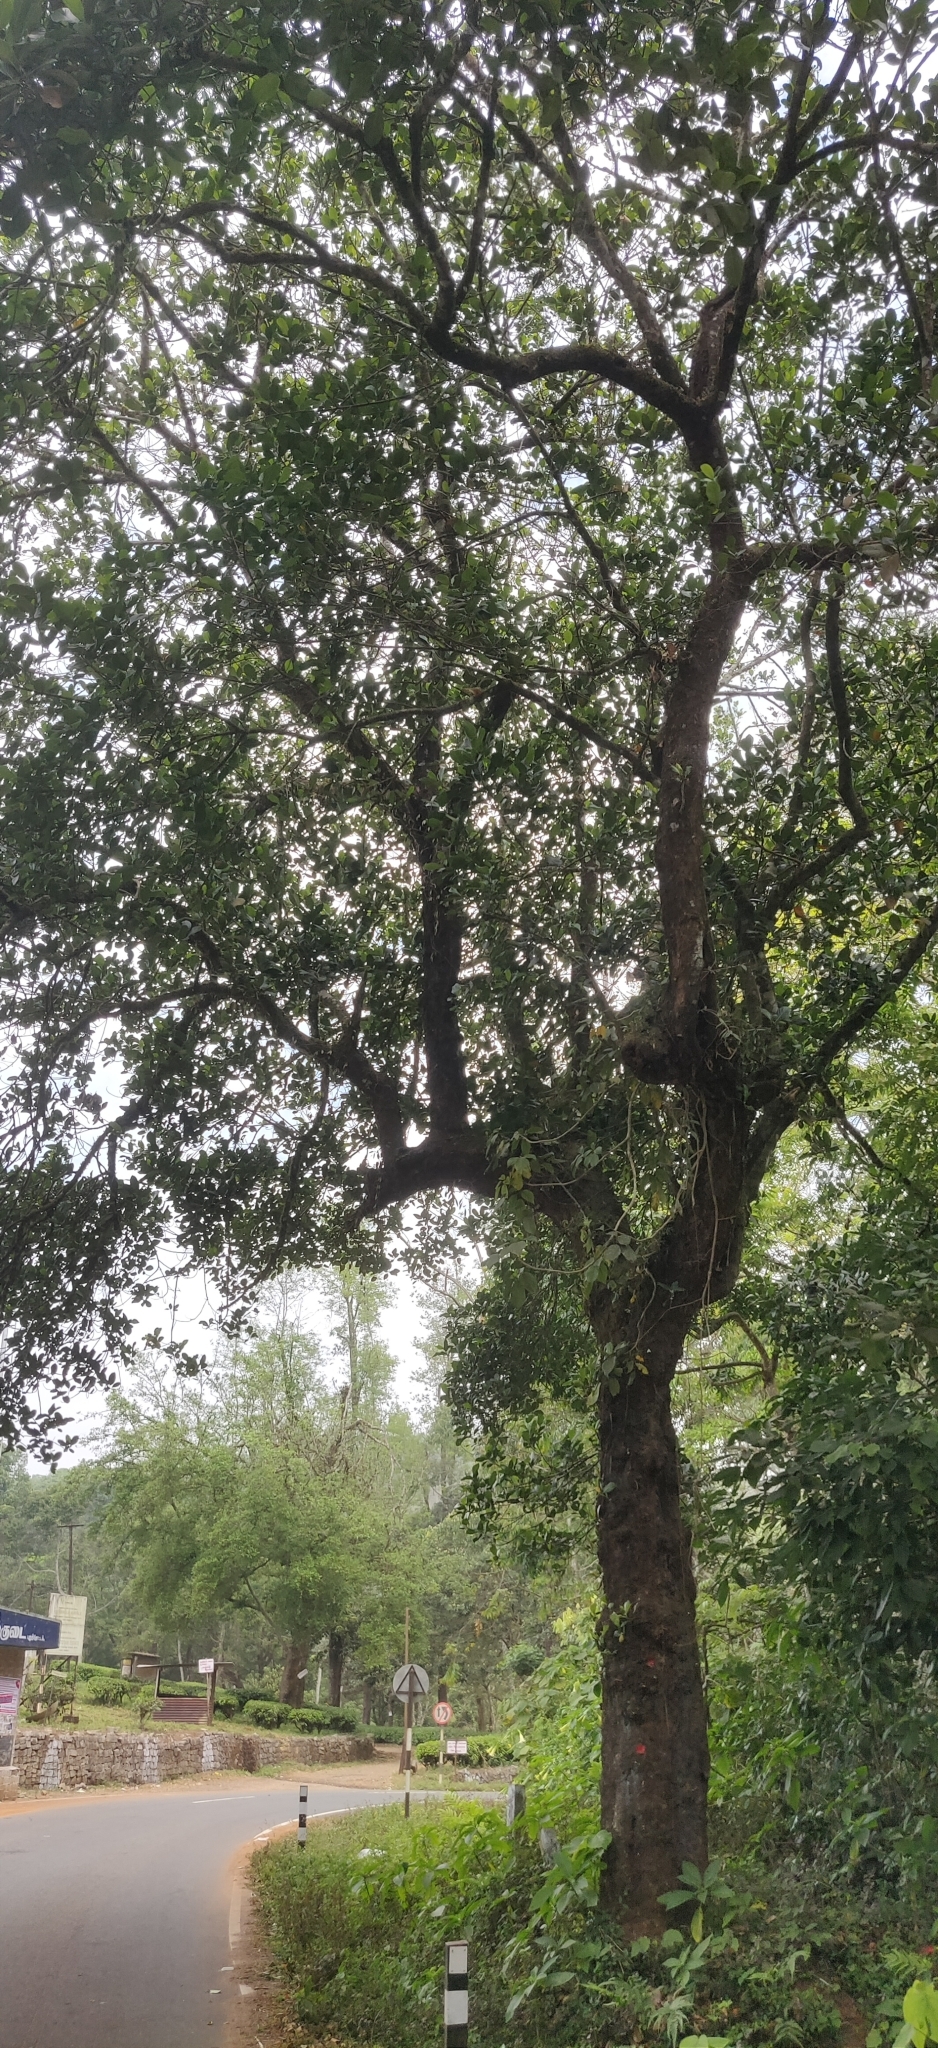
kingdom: Plantae
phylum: Tracheophyta
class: Magnoliopsida
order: Rosales
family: Moraceae
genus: Artocarpus
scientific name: Artocarpus heterophyllus
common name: Jackfruit
